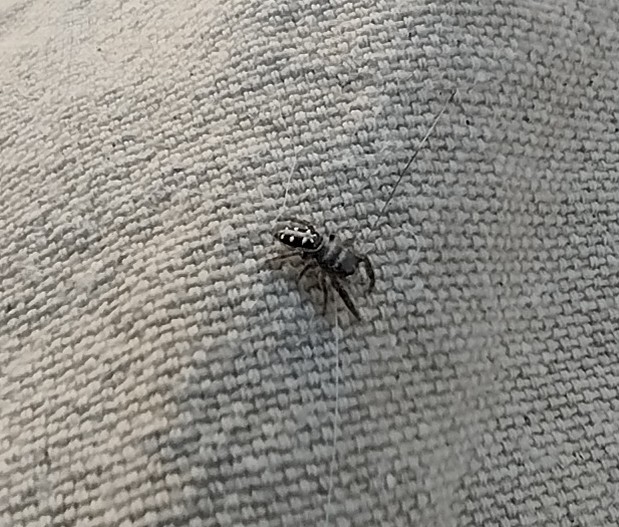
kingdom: Animalia
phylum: Arthropoda
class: Arachnida
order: Araneae
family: Salticidae
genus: Dendryphantes
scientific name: Dendryphantes mordax
